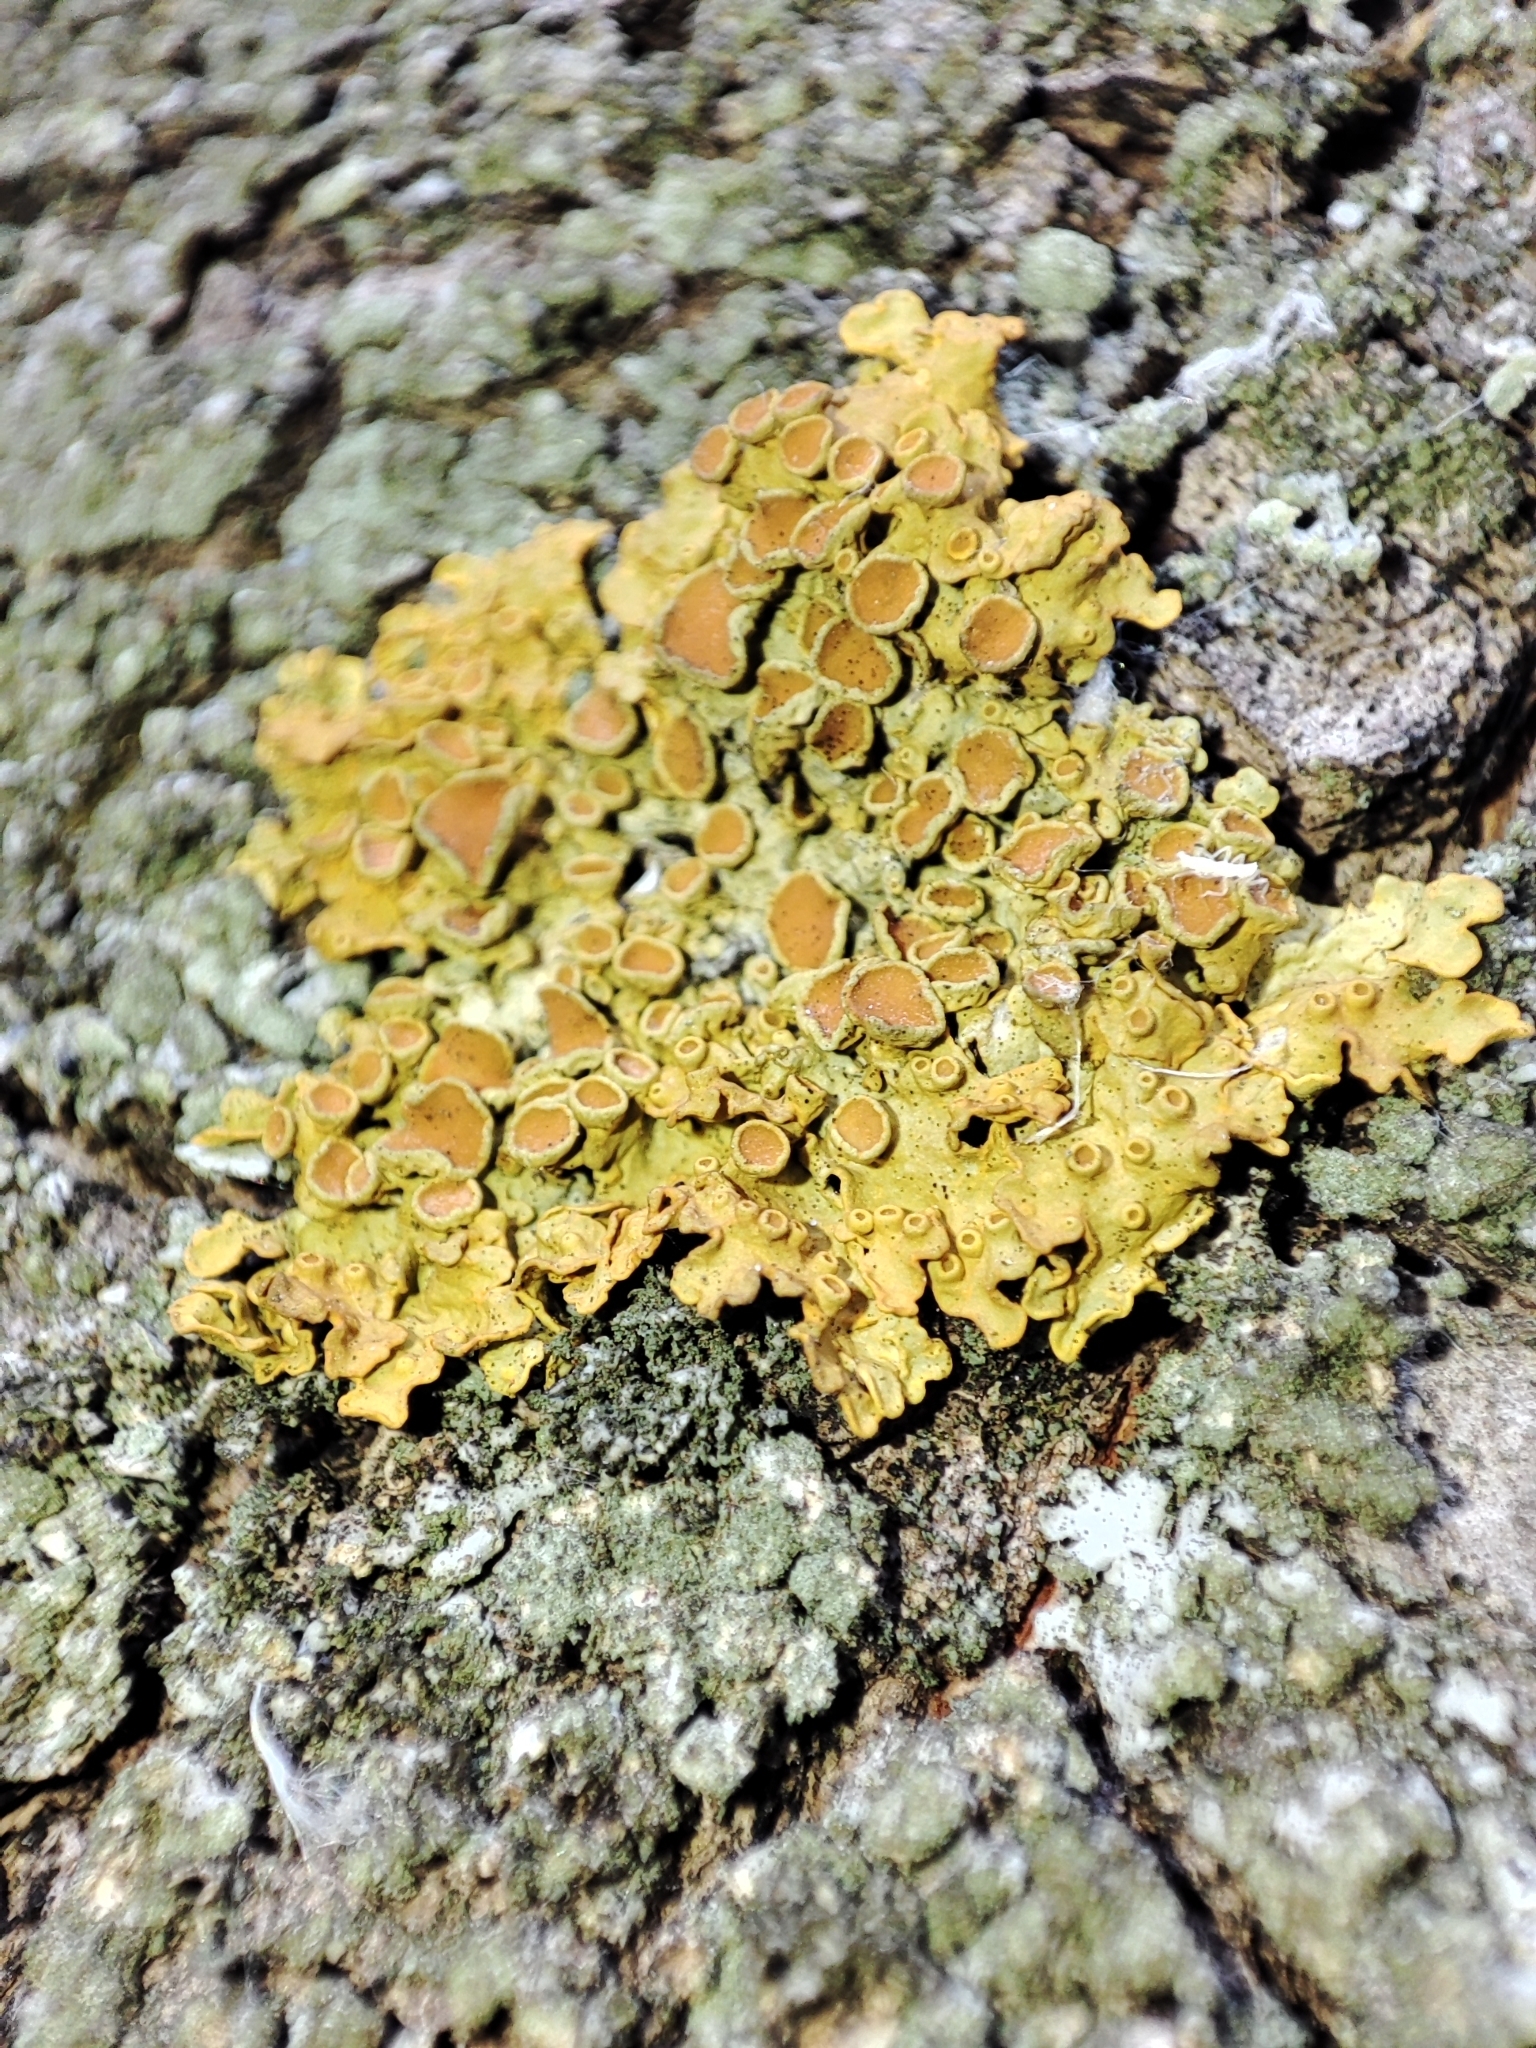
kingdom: Fungi
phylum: Ascomycota
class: Lecanoromycetes
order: Teloschistales
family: Teloschistaceae
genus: Xanthoria
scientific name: Xanthoria parietina
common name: Common orange lichen
